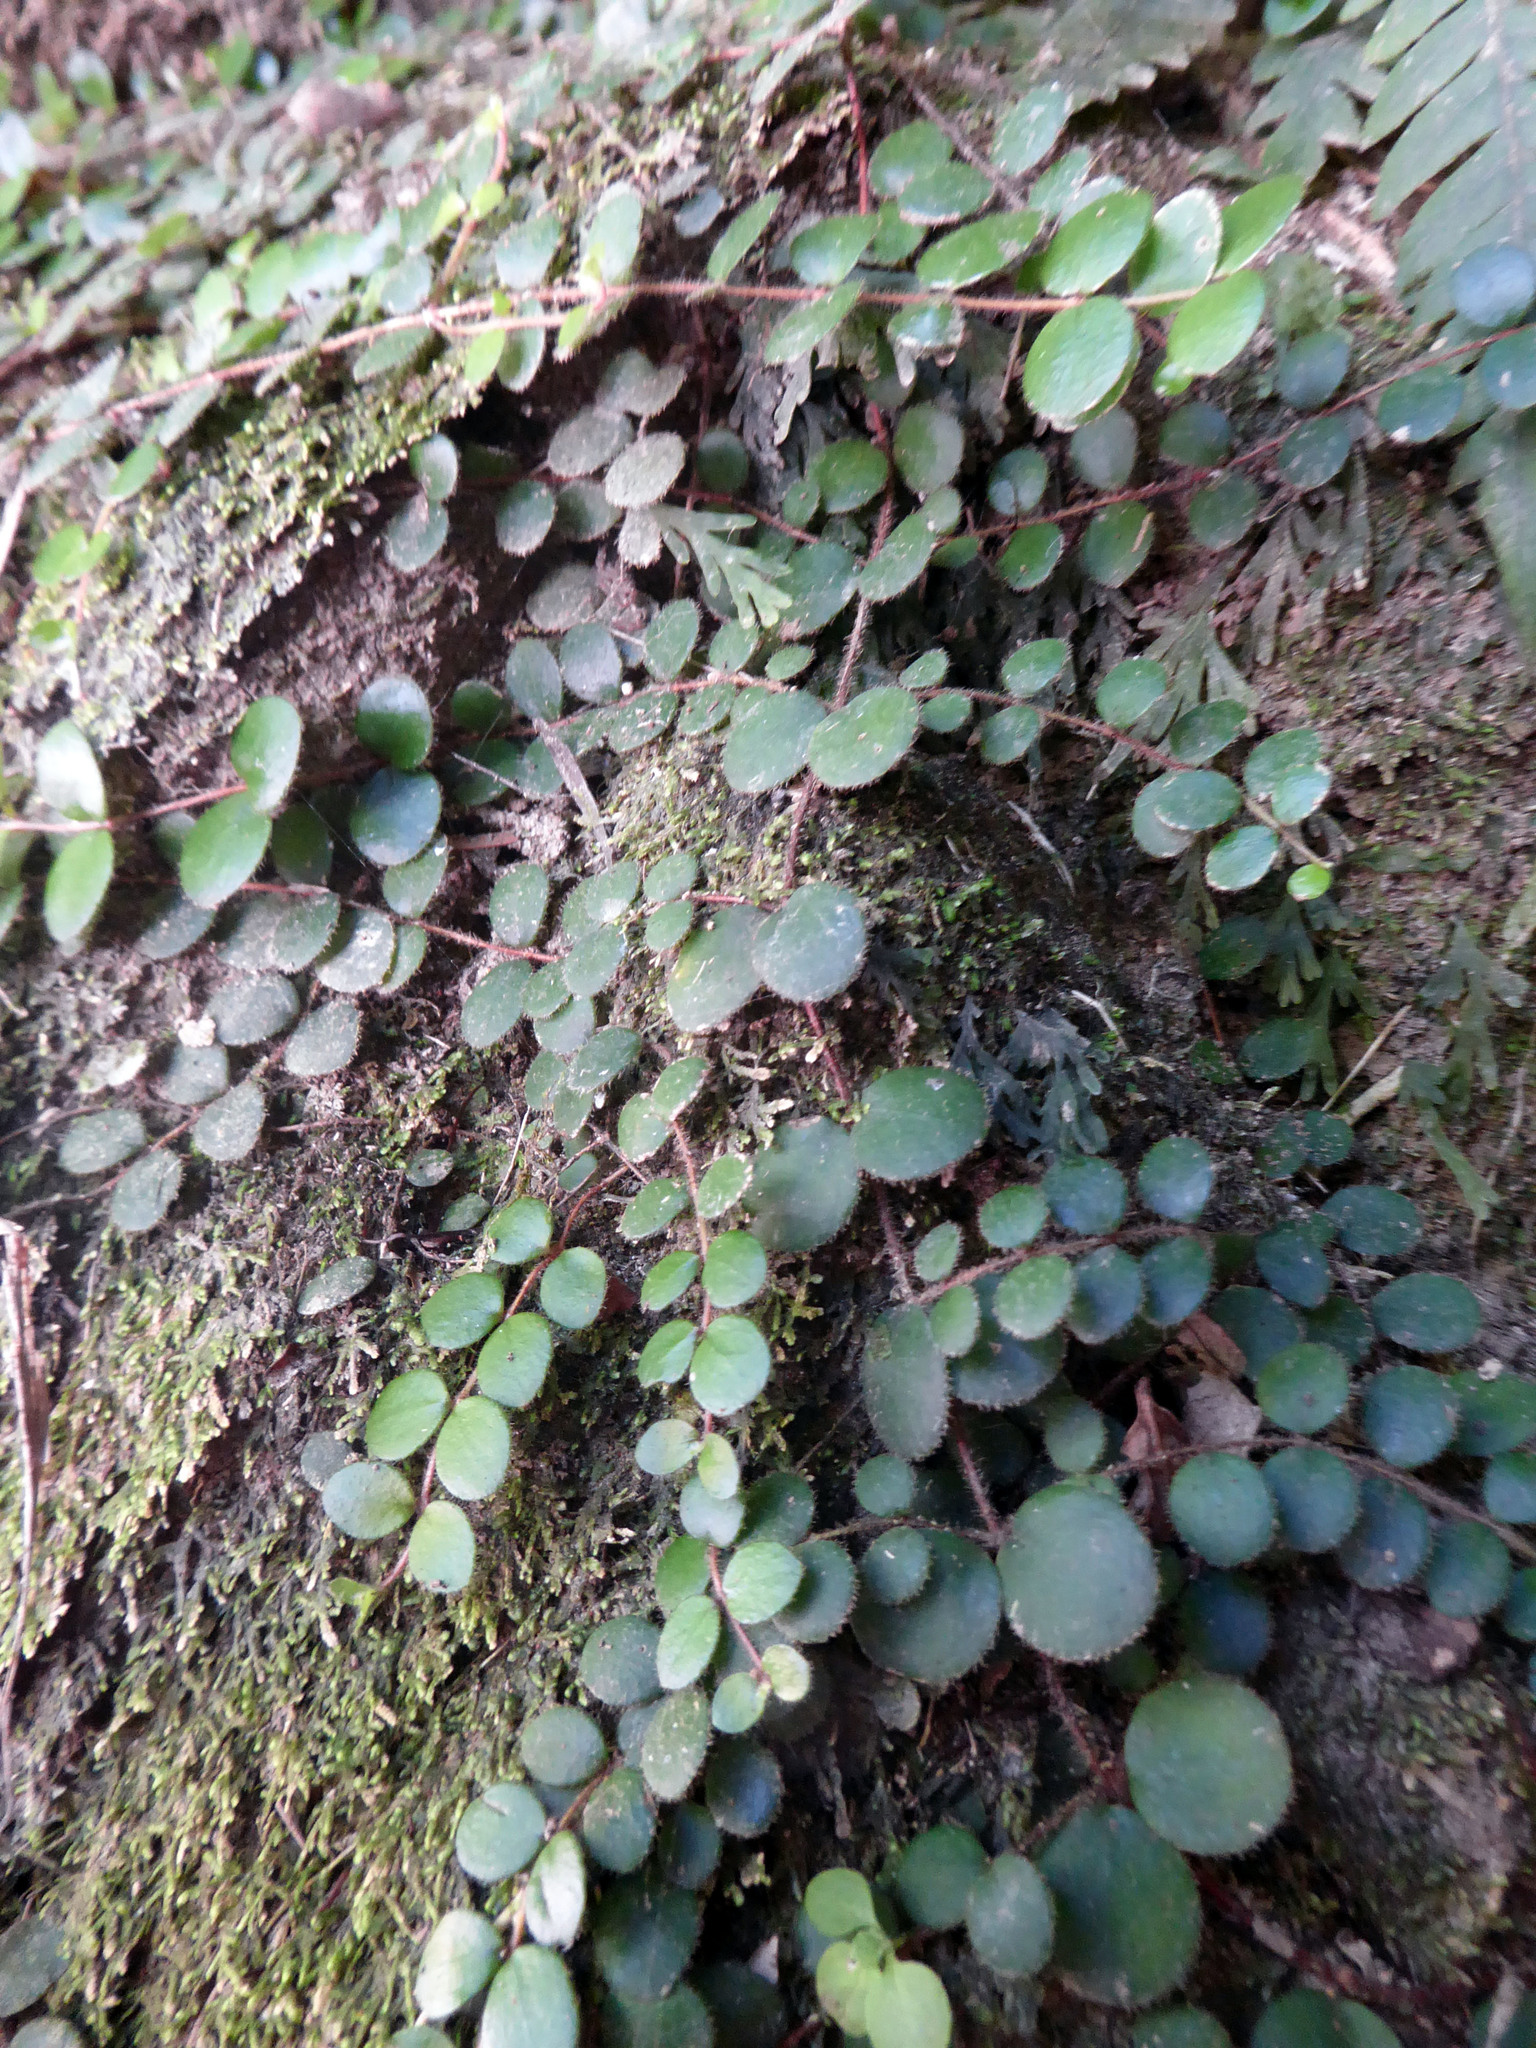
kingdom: Plantae
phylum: Tracheophyta
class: Magnoliopsida
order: Myrtales
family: Myrtaceae
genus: Metrosideros
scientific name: Metrosideros carminea
